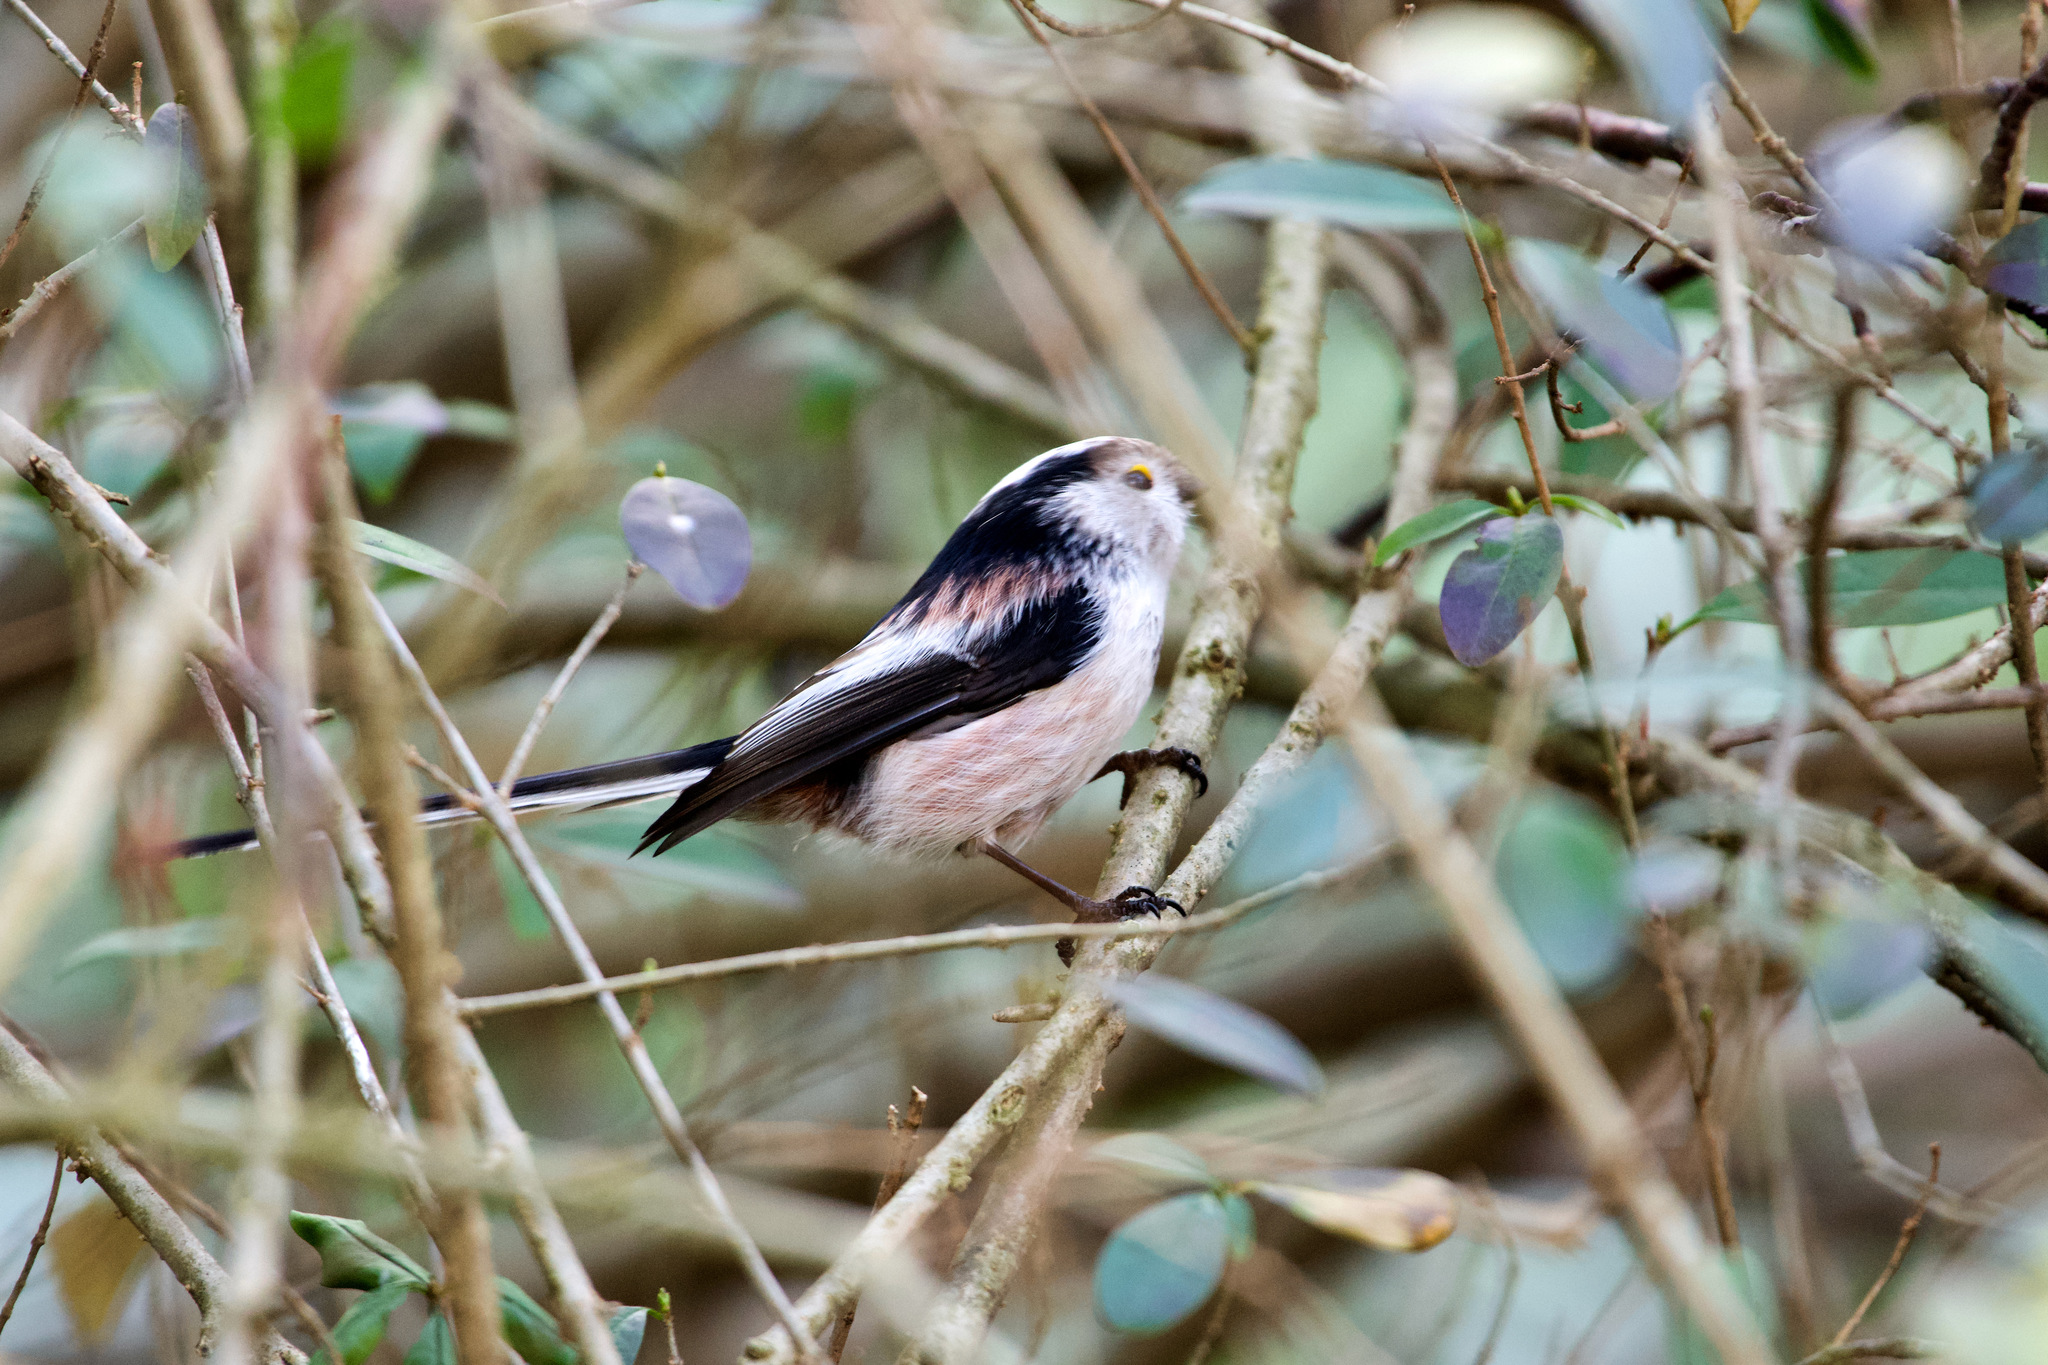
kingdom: Animalia
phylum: Chordata
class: Aves
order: Passeriformes
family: Aegithalidae
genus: Aegithalos
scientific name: Aegithalos caudatus
